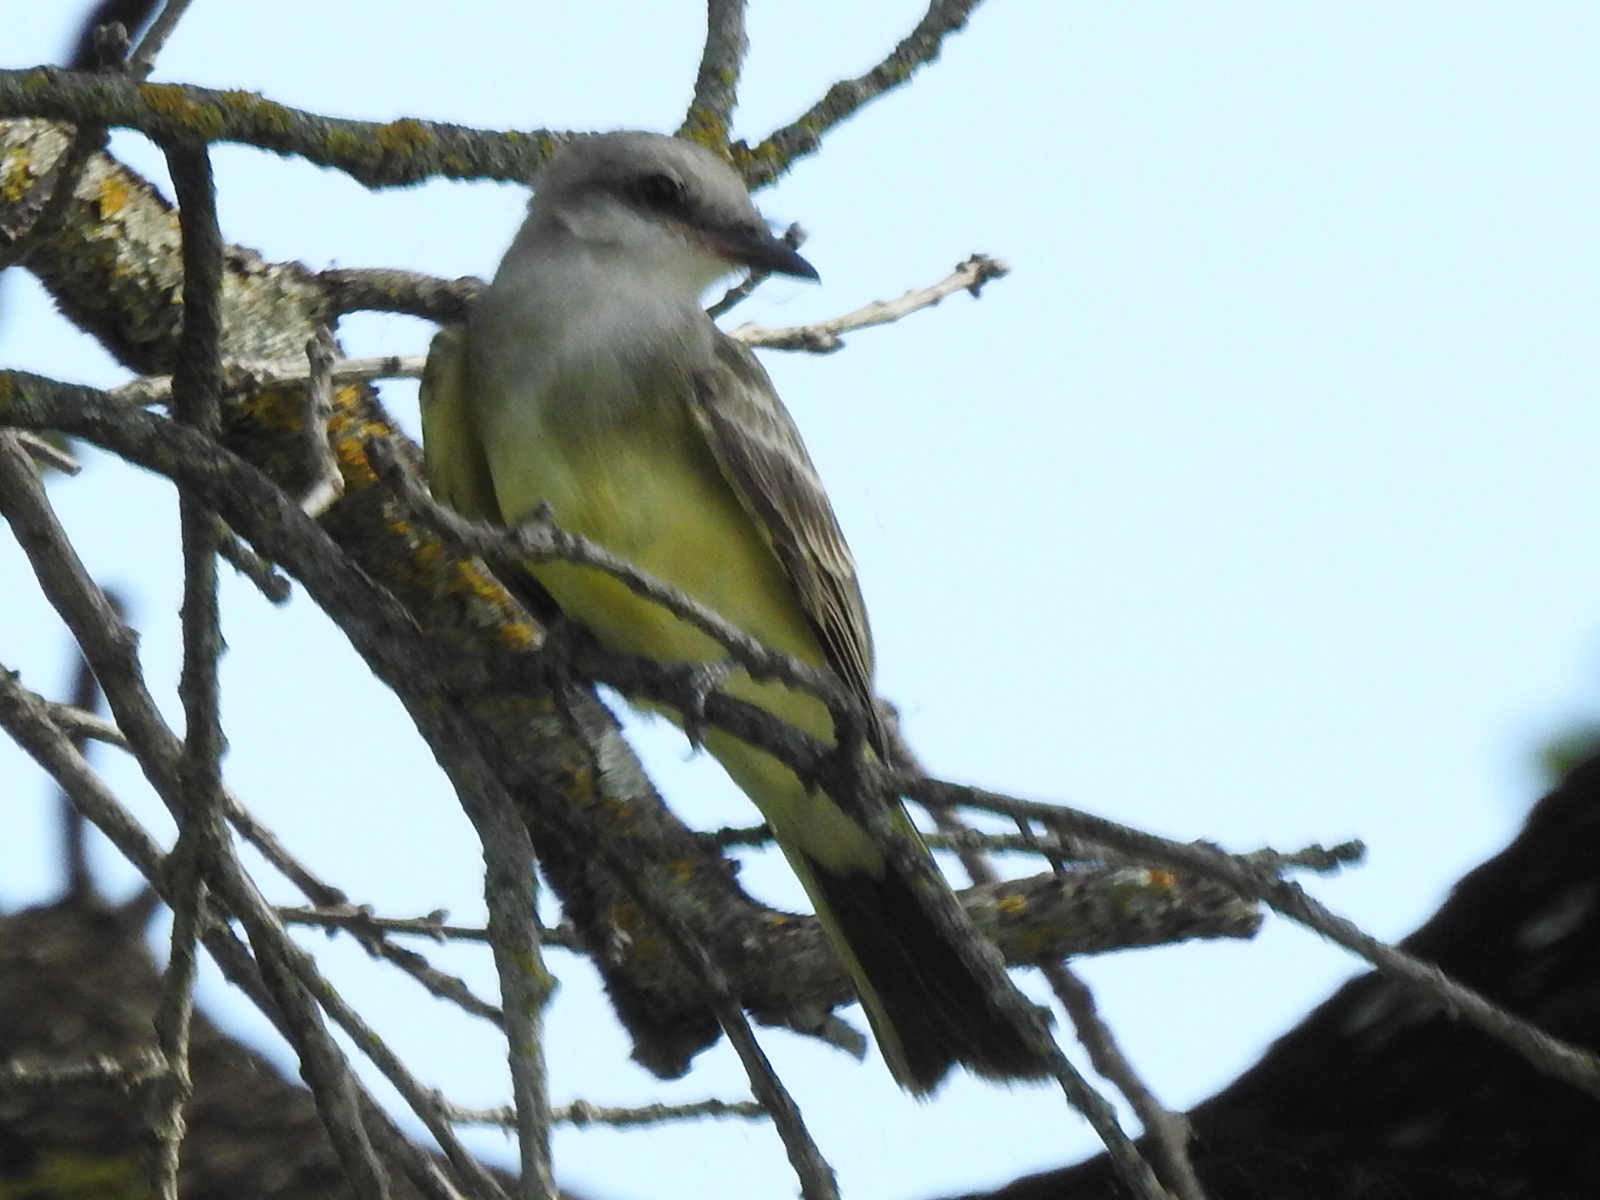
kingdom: Animalia
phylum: Chordata
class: Aves
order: Passeriformes
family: Tyrannidae
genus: Tyrannus
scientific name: Tyrannus verticalis
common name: Western kingbird
